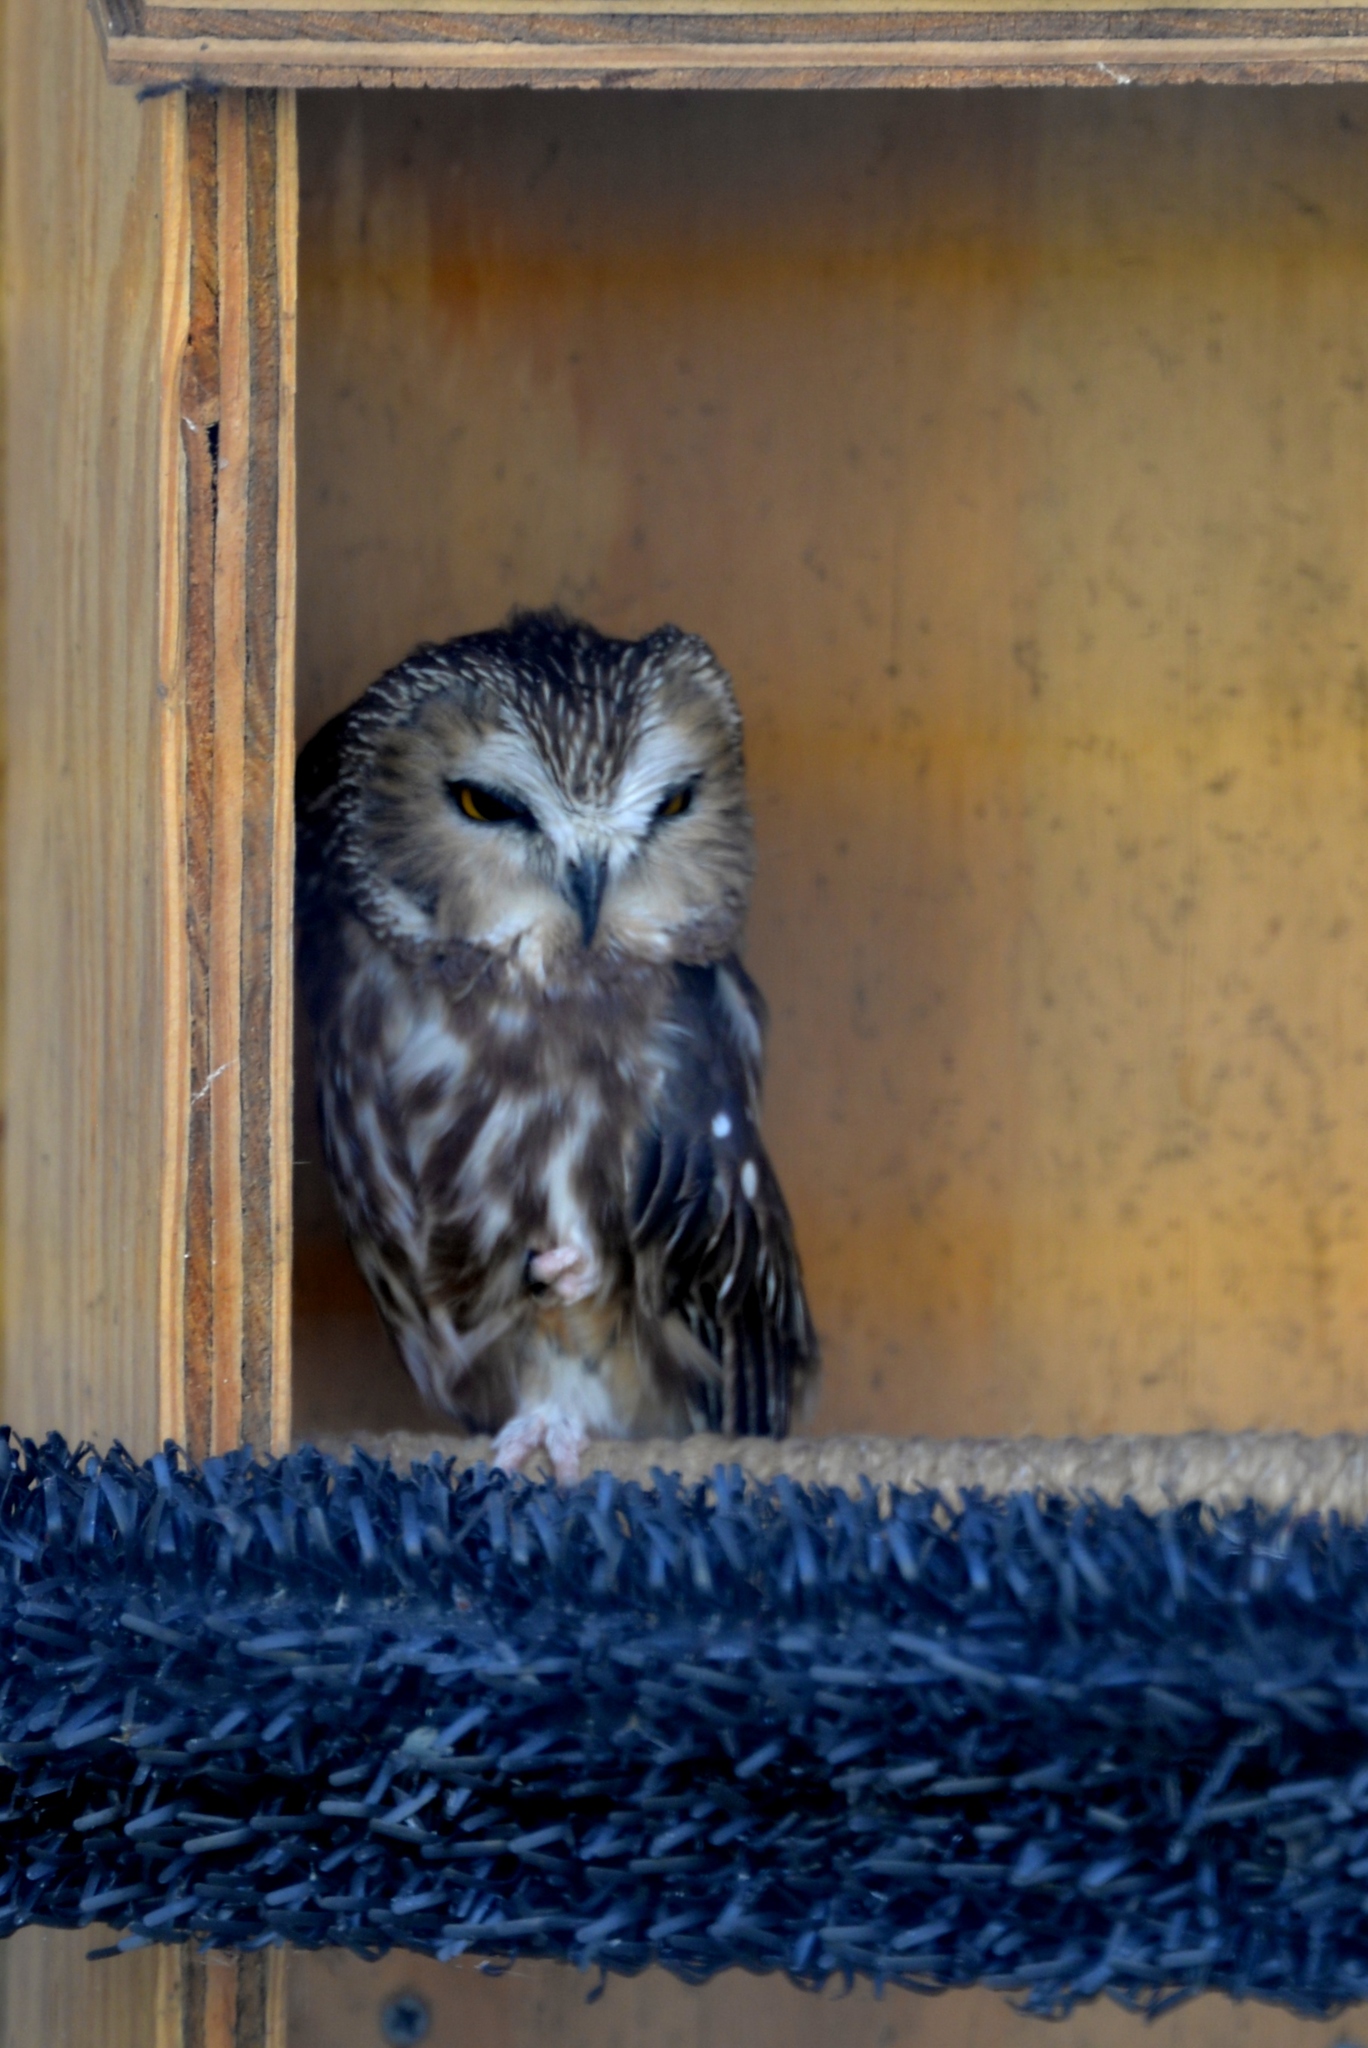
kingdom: Animalia
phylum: Chordata
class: Aves
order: Strigiformes
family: Strigidae
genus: Aegolius
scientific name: Aegolius acadicus
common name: Northern saw-whet owl
